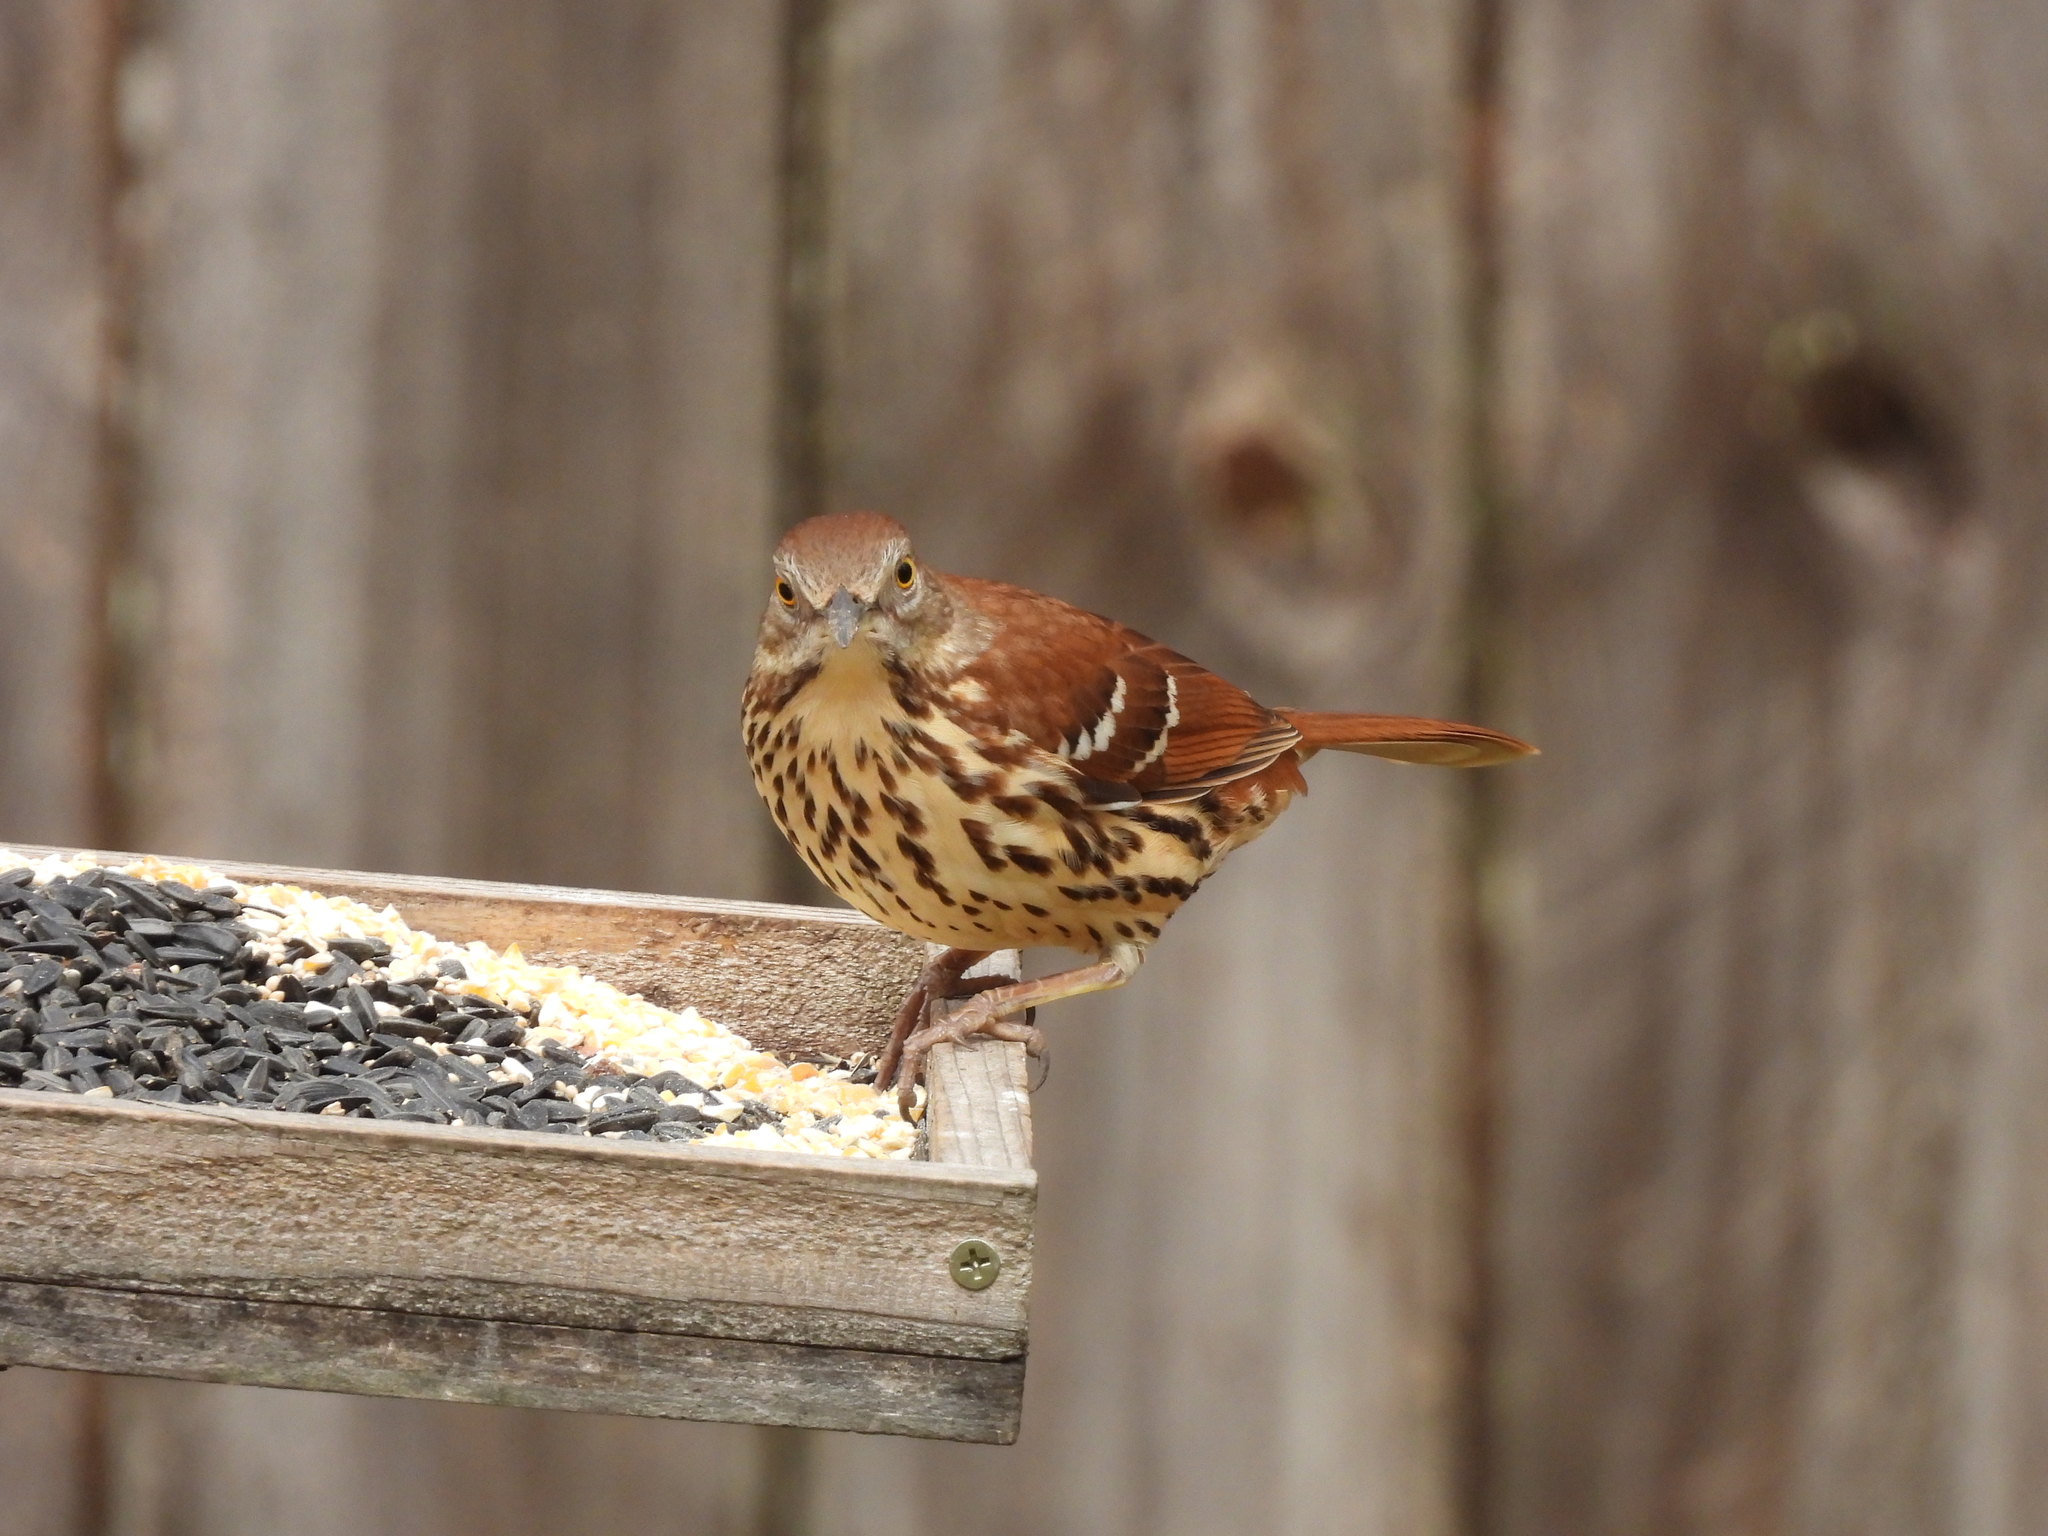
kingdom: Animalia
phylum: Chordata
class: Aves
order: Passeriformes
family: Mimidae
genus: Toxostoma
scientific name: Toxostoma rufum
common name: Brown thrasher
